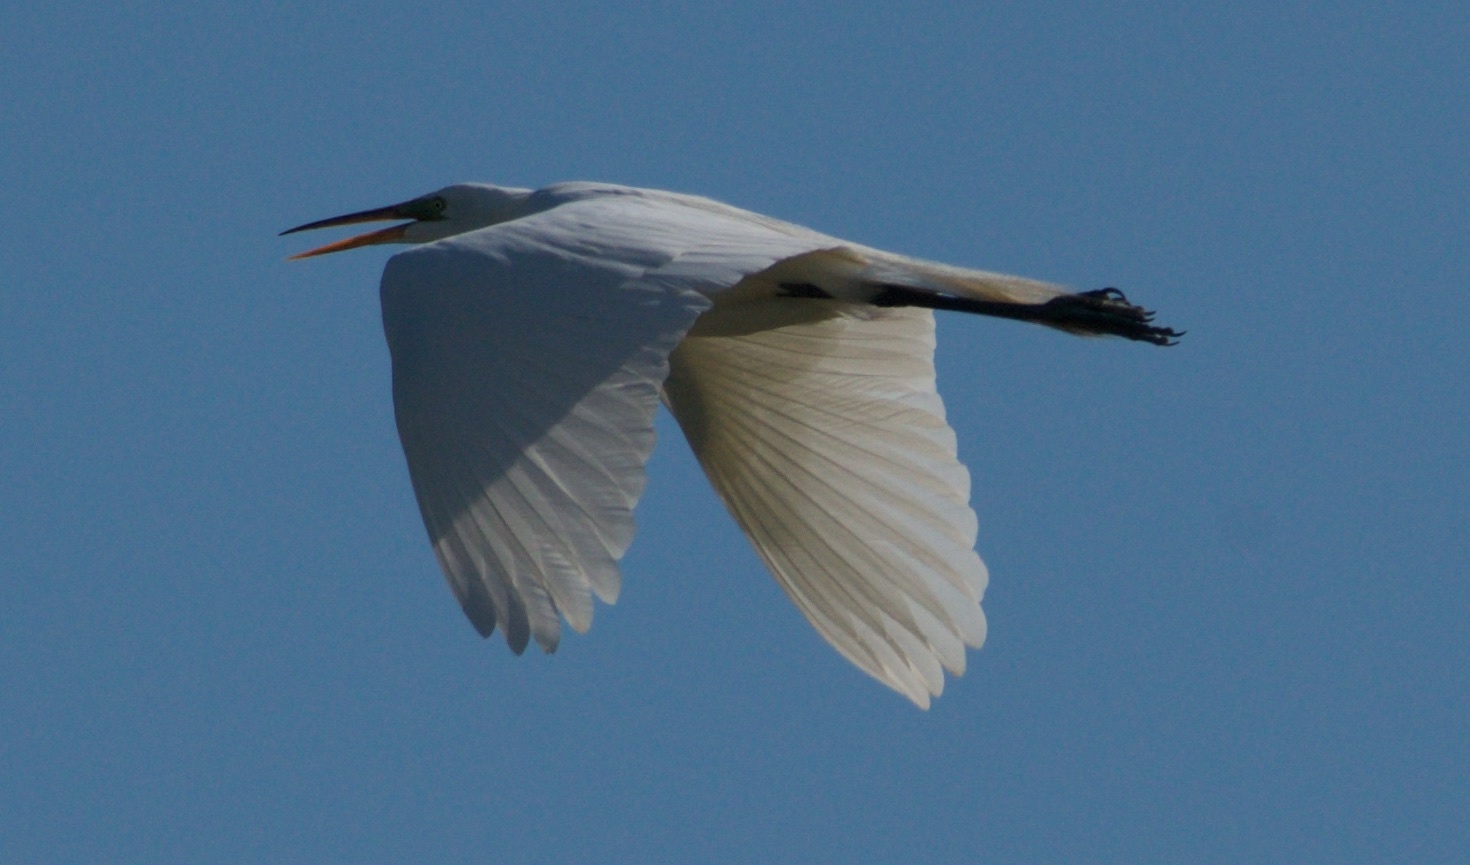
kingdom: Animalia
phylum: Chordata
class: Aves
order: Pelecaniformes
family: Ardeidae
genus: Ardea
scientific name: Ardea alba
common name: Great egret
